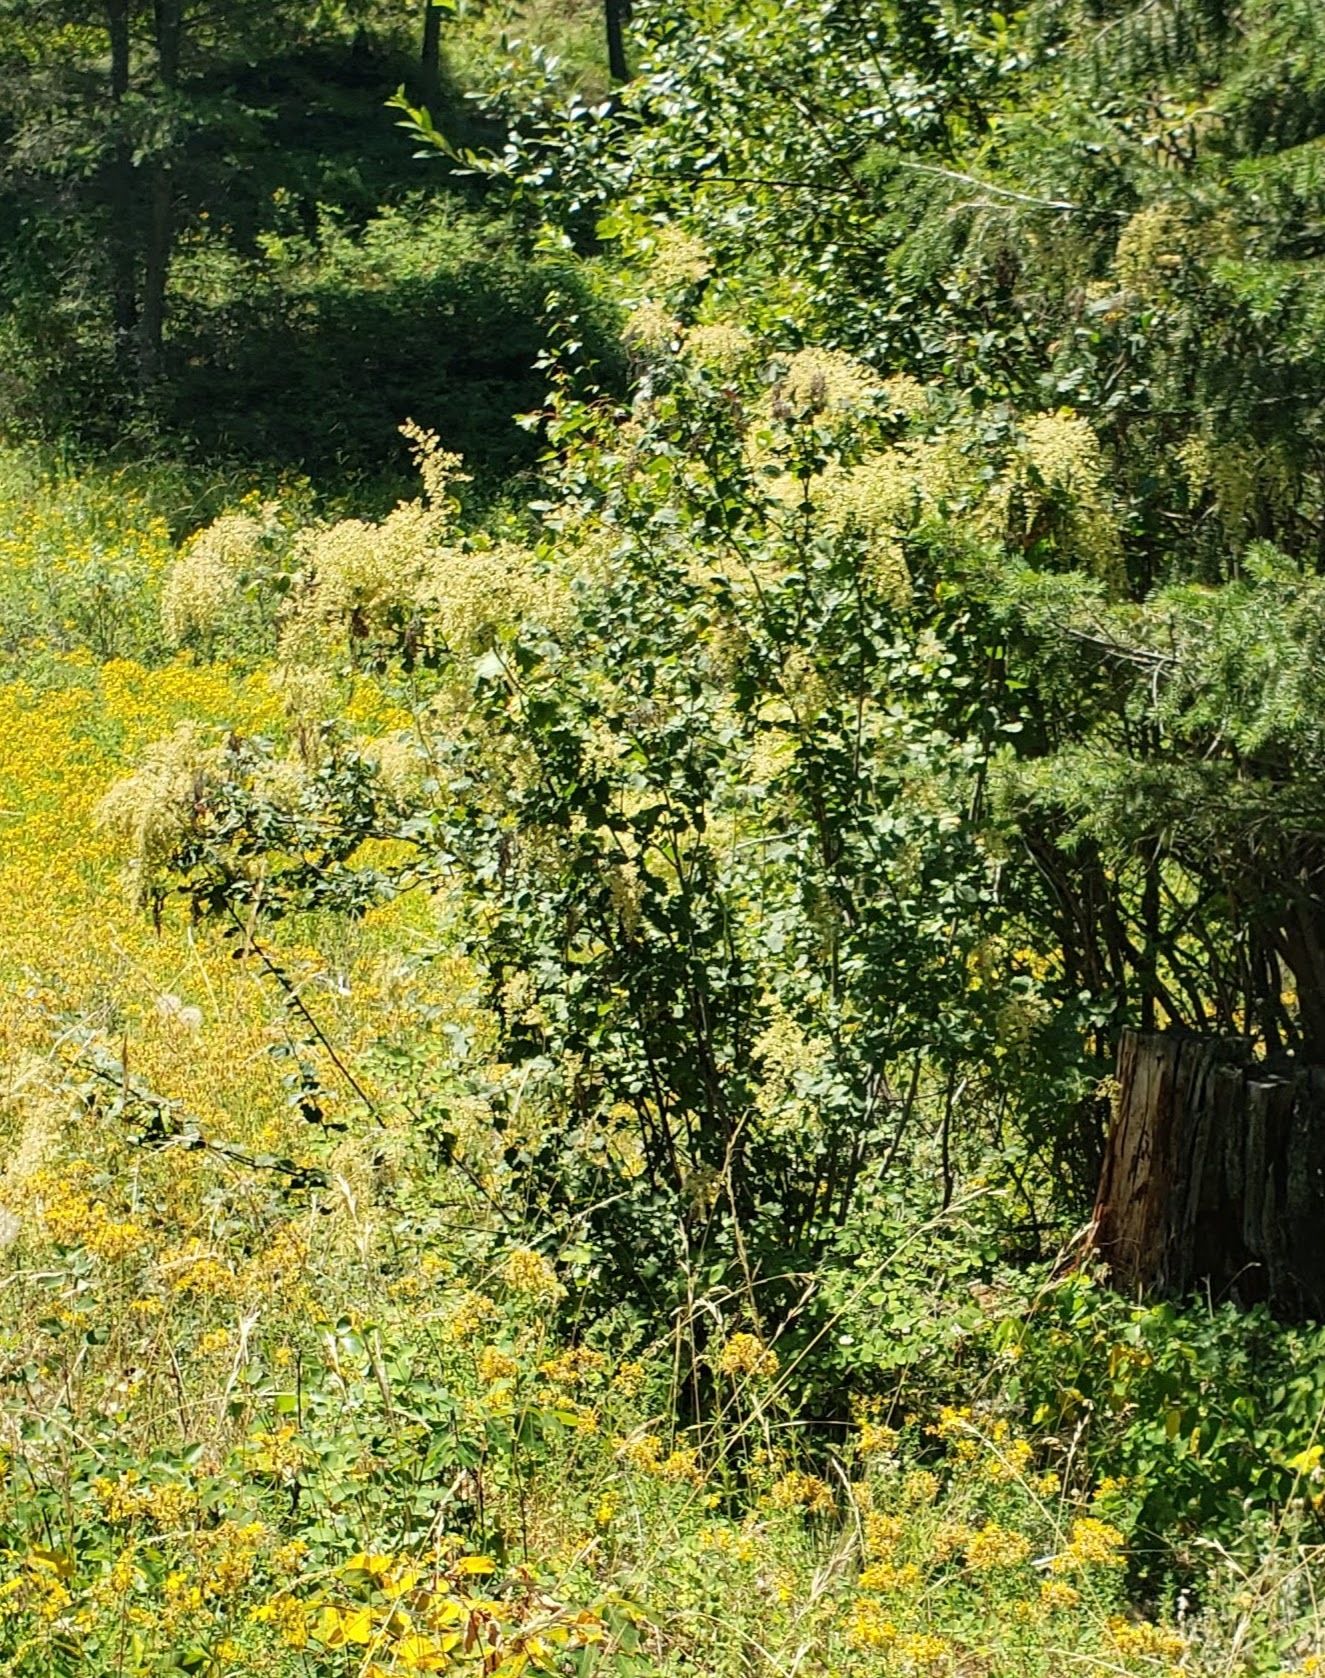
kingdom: Plantae
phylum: Tracheophyta
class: Magnoliopsida
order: Rosales
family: Rosaceae
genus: Holodiscus
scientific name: Holodiscus discolor
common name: Oceanspray
